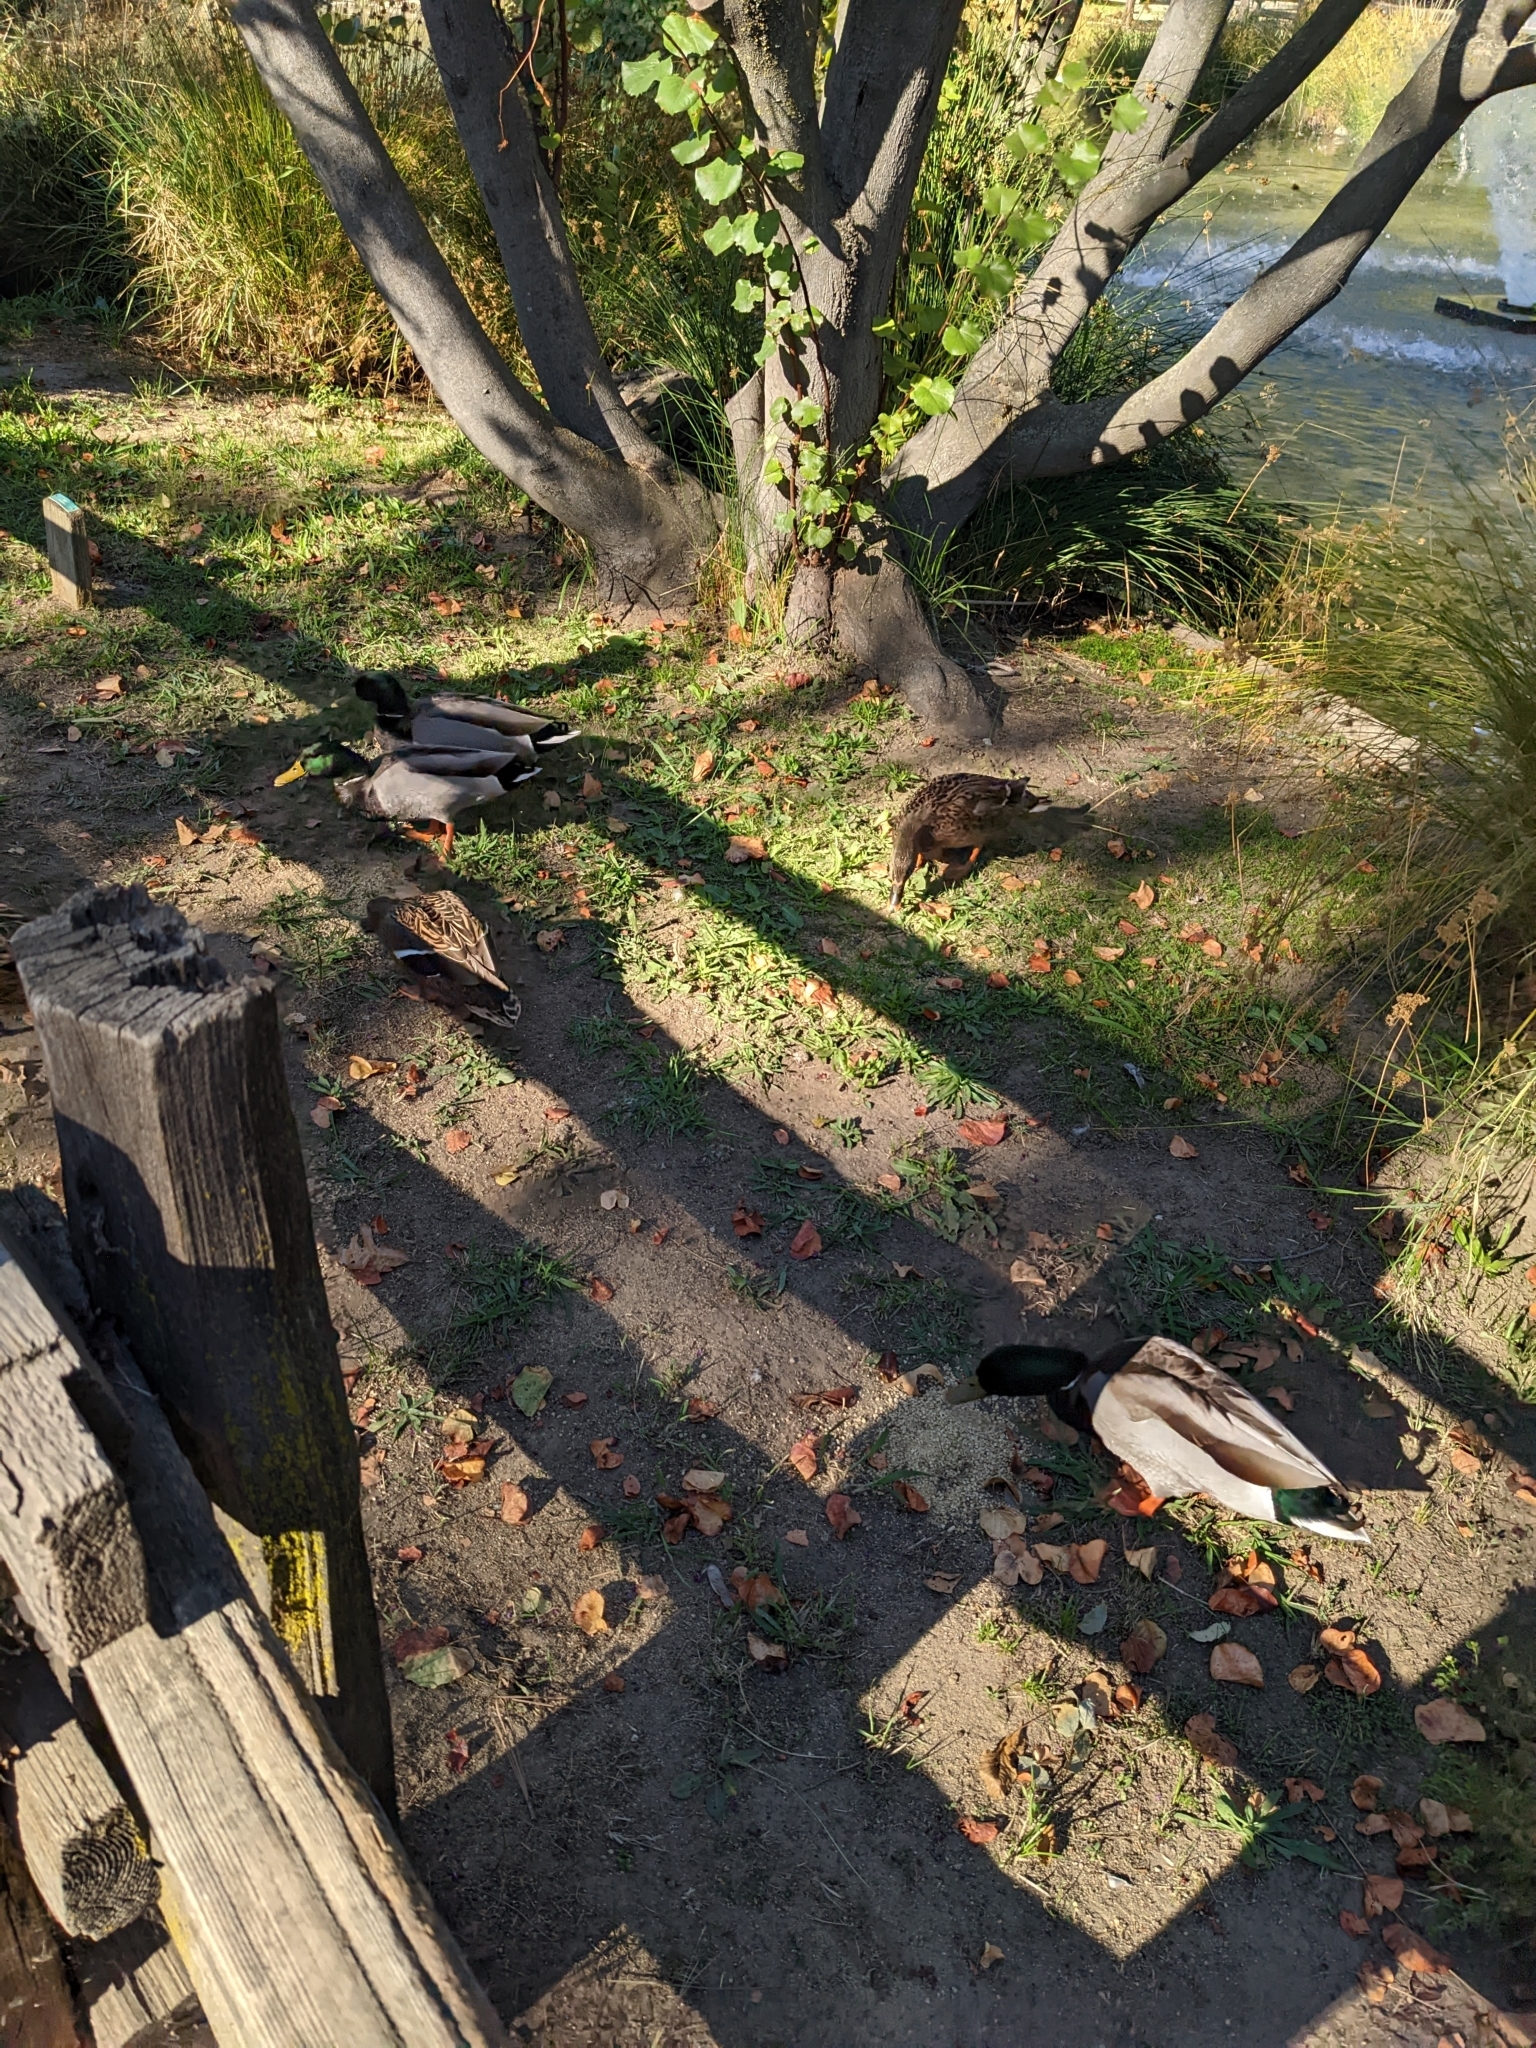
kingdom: Animalia
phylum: Chordata
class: Aves
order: Anseriformes
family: Anatidae
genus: Anas
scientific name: Anas platyrhynchos
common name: Mallard
